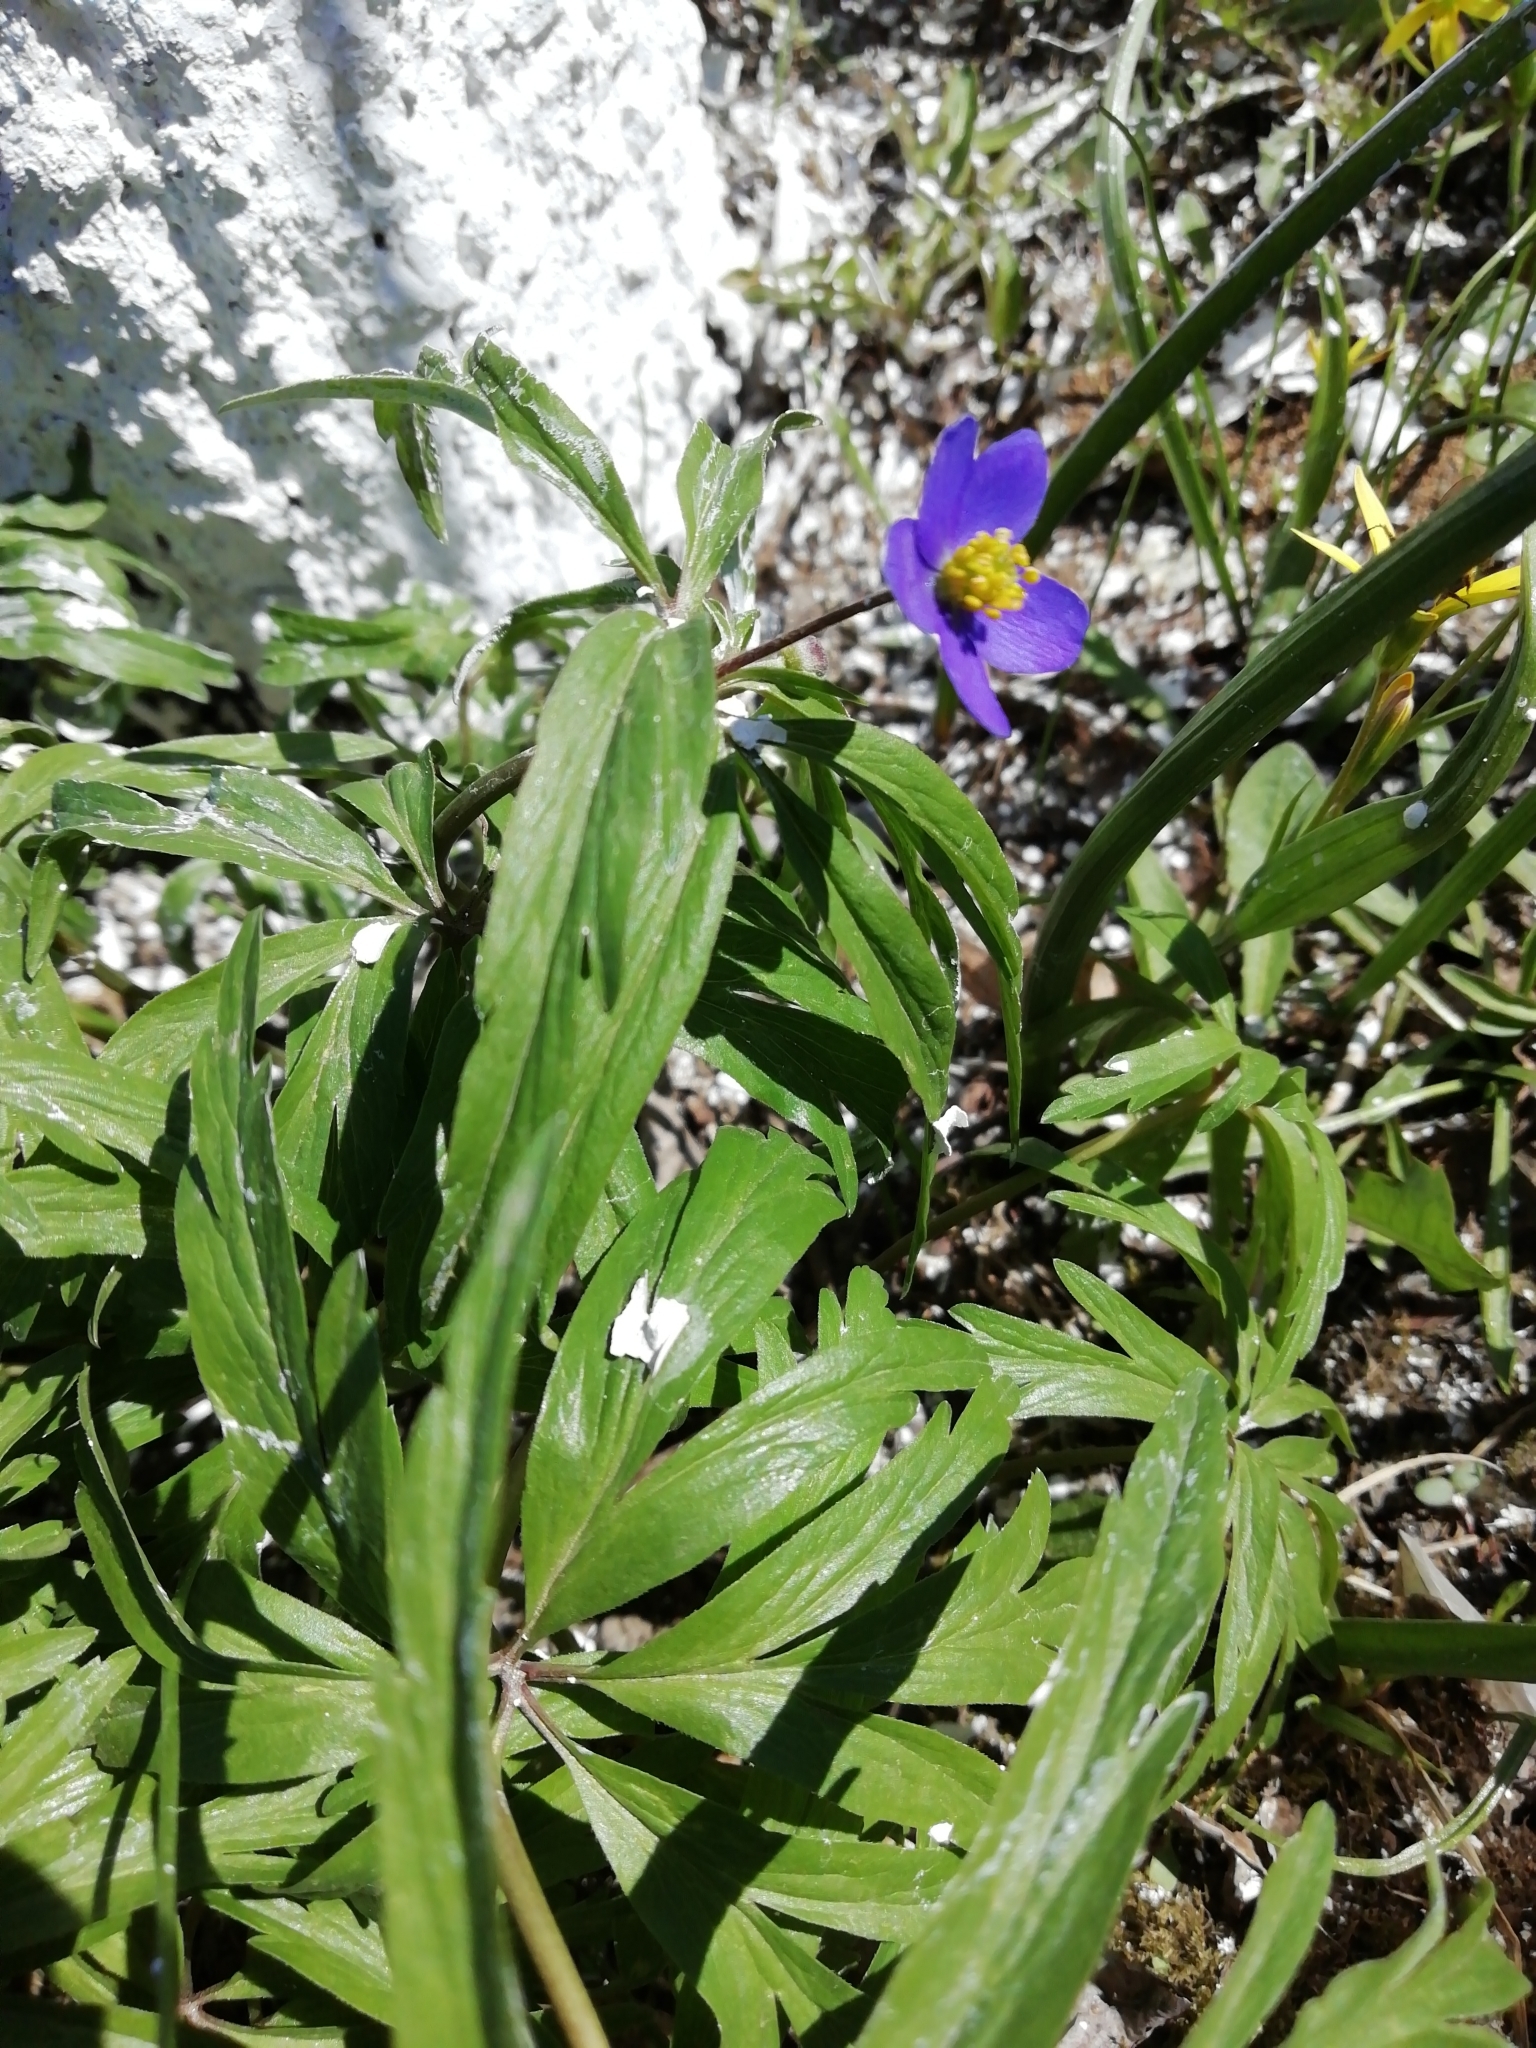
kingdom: Plantae
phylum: Tracheophyta
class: Magnoliopsida
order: Ranunculales
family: Ranunculaceae
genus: Anemone
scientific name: Anemone caerulea
